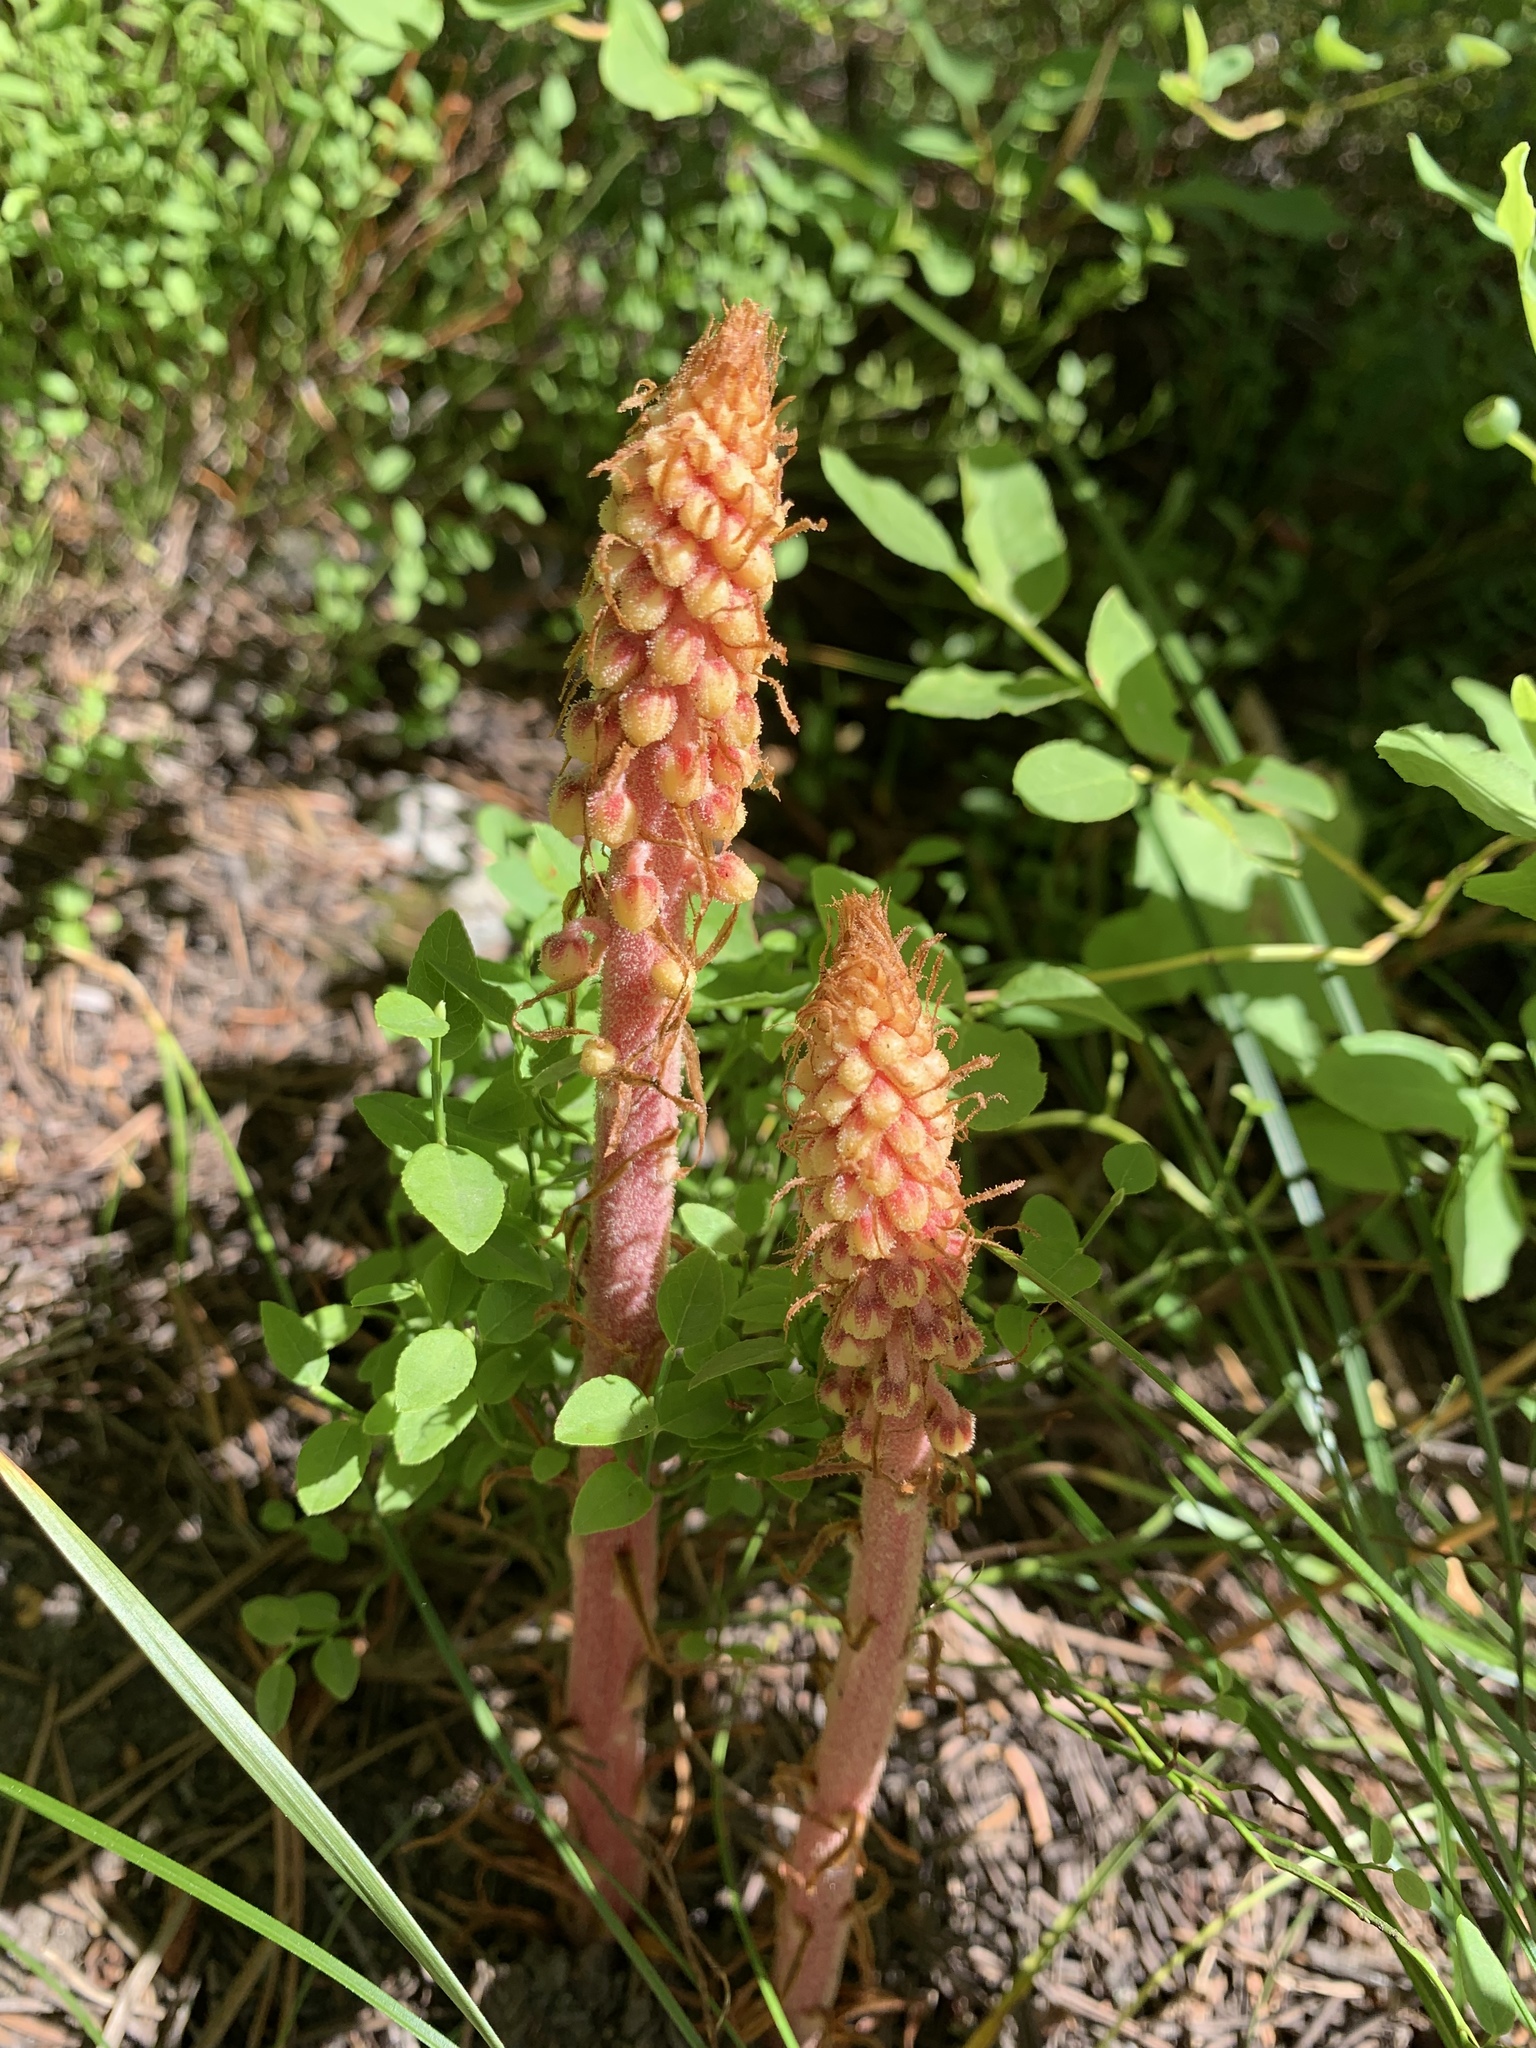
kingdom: Plantae
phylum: Tracheophyta
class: Magnoliopsida
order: Ericales
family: Ericaceae
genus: Pterospora
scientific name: Pterospora andromedea
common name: Giant bird's-nest
